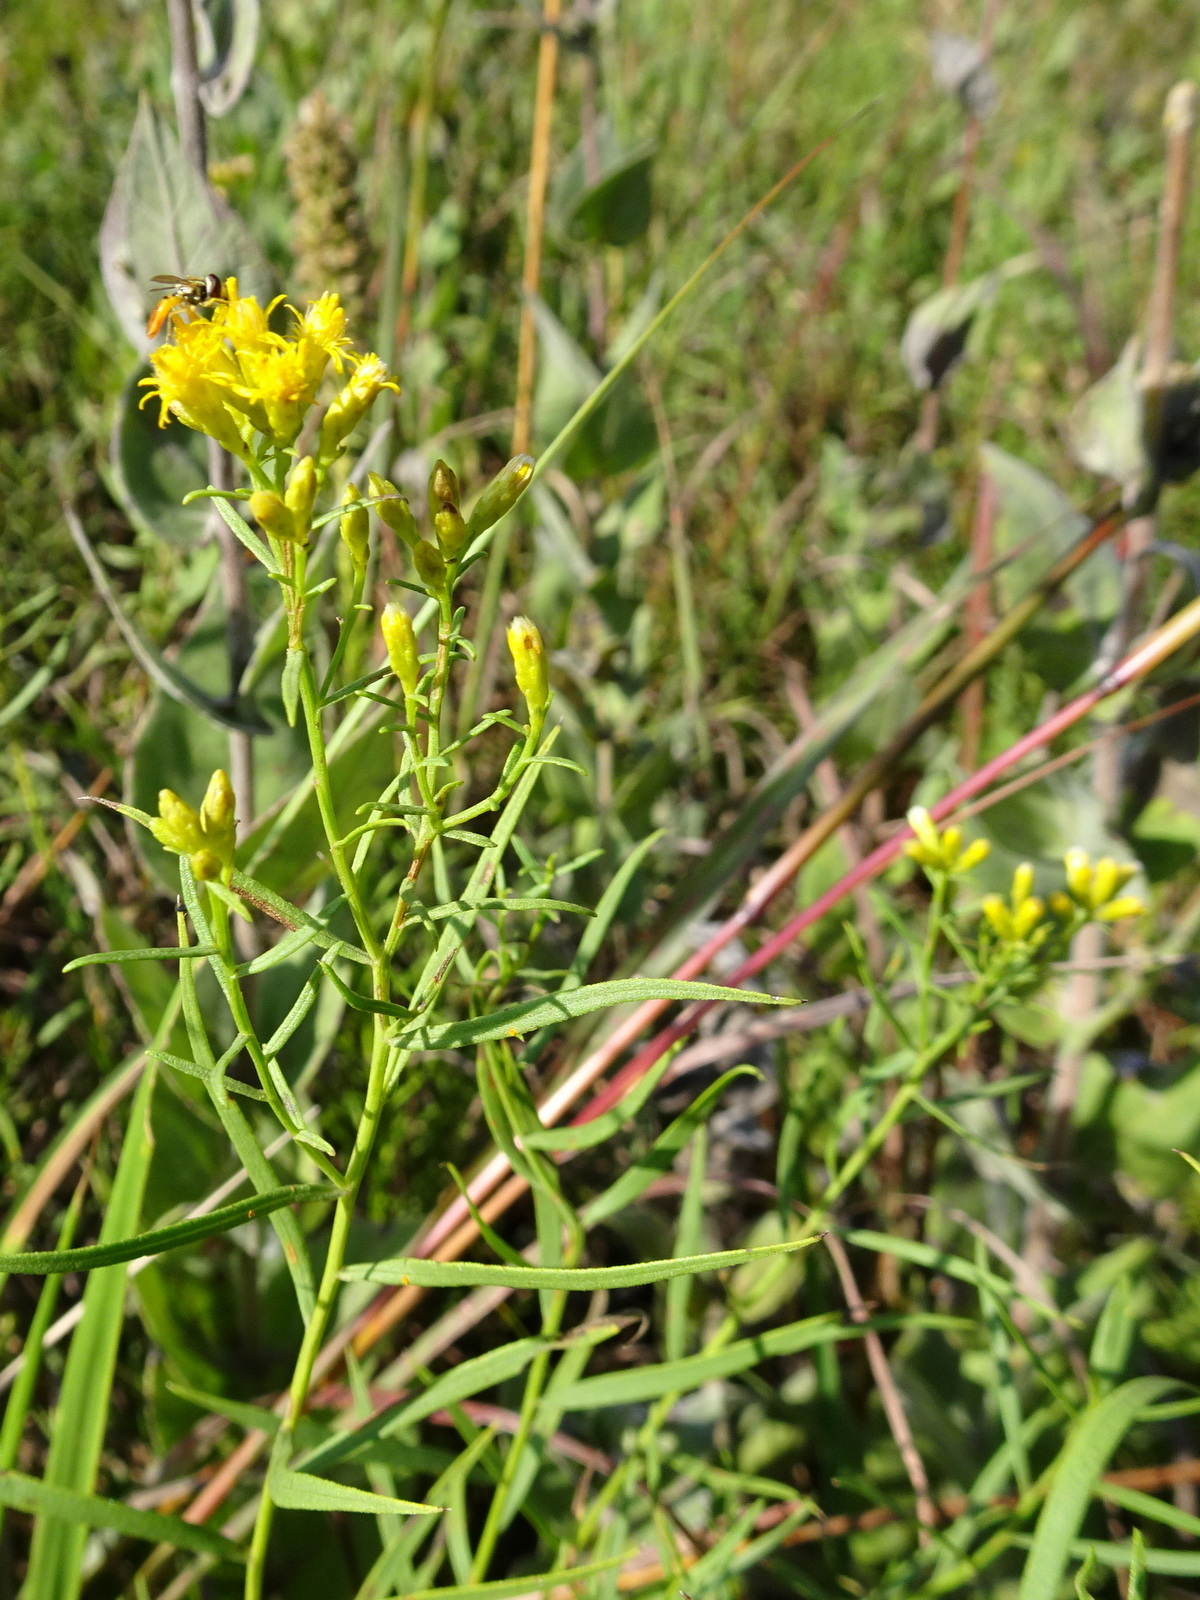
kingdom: Plantae
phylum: Tracheophyta
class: Magnoliopsida
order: Asterales
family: Asteraceae
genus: Euthamia
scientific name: Euthamia gymnospermoides
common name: Great plains goldentop
